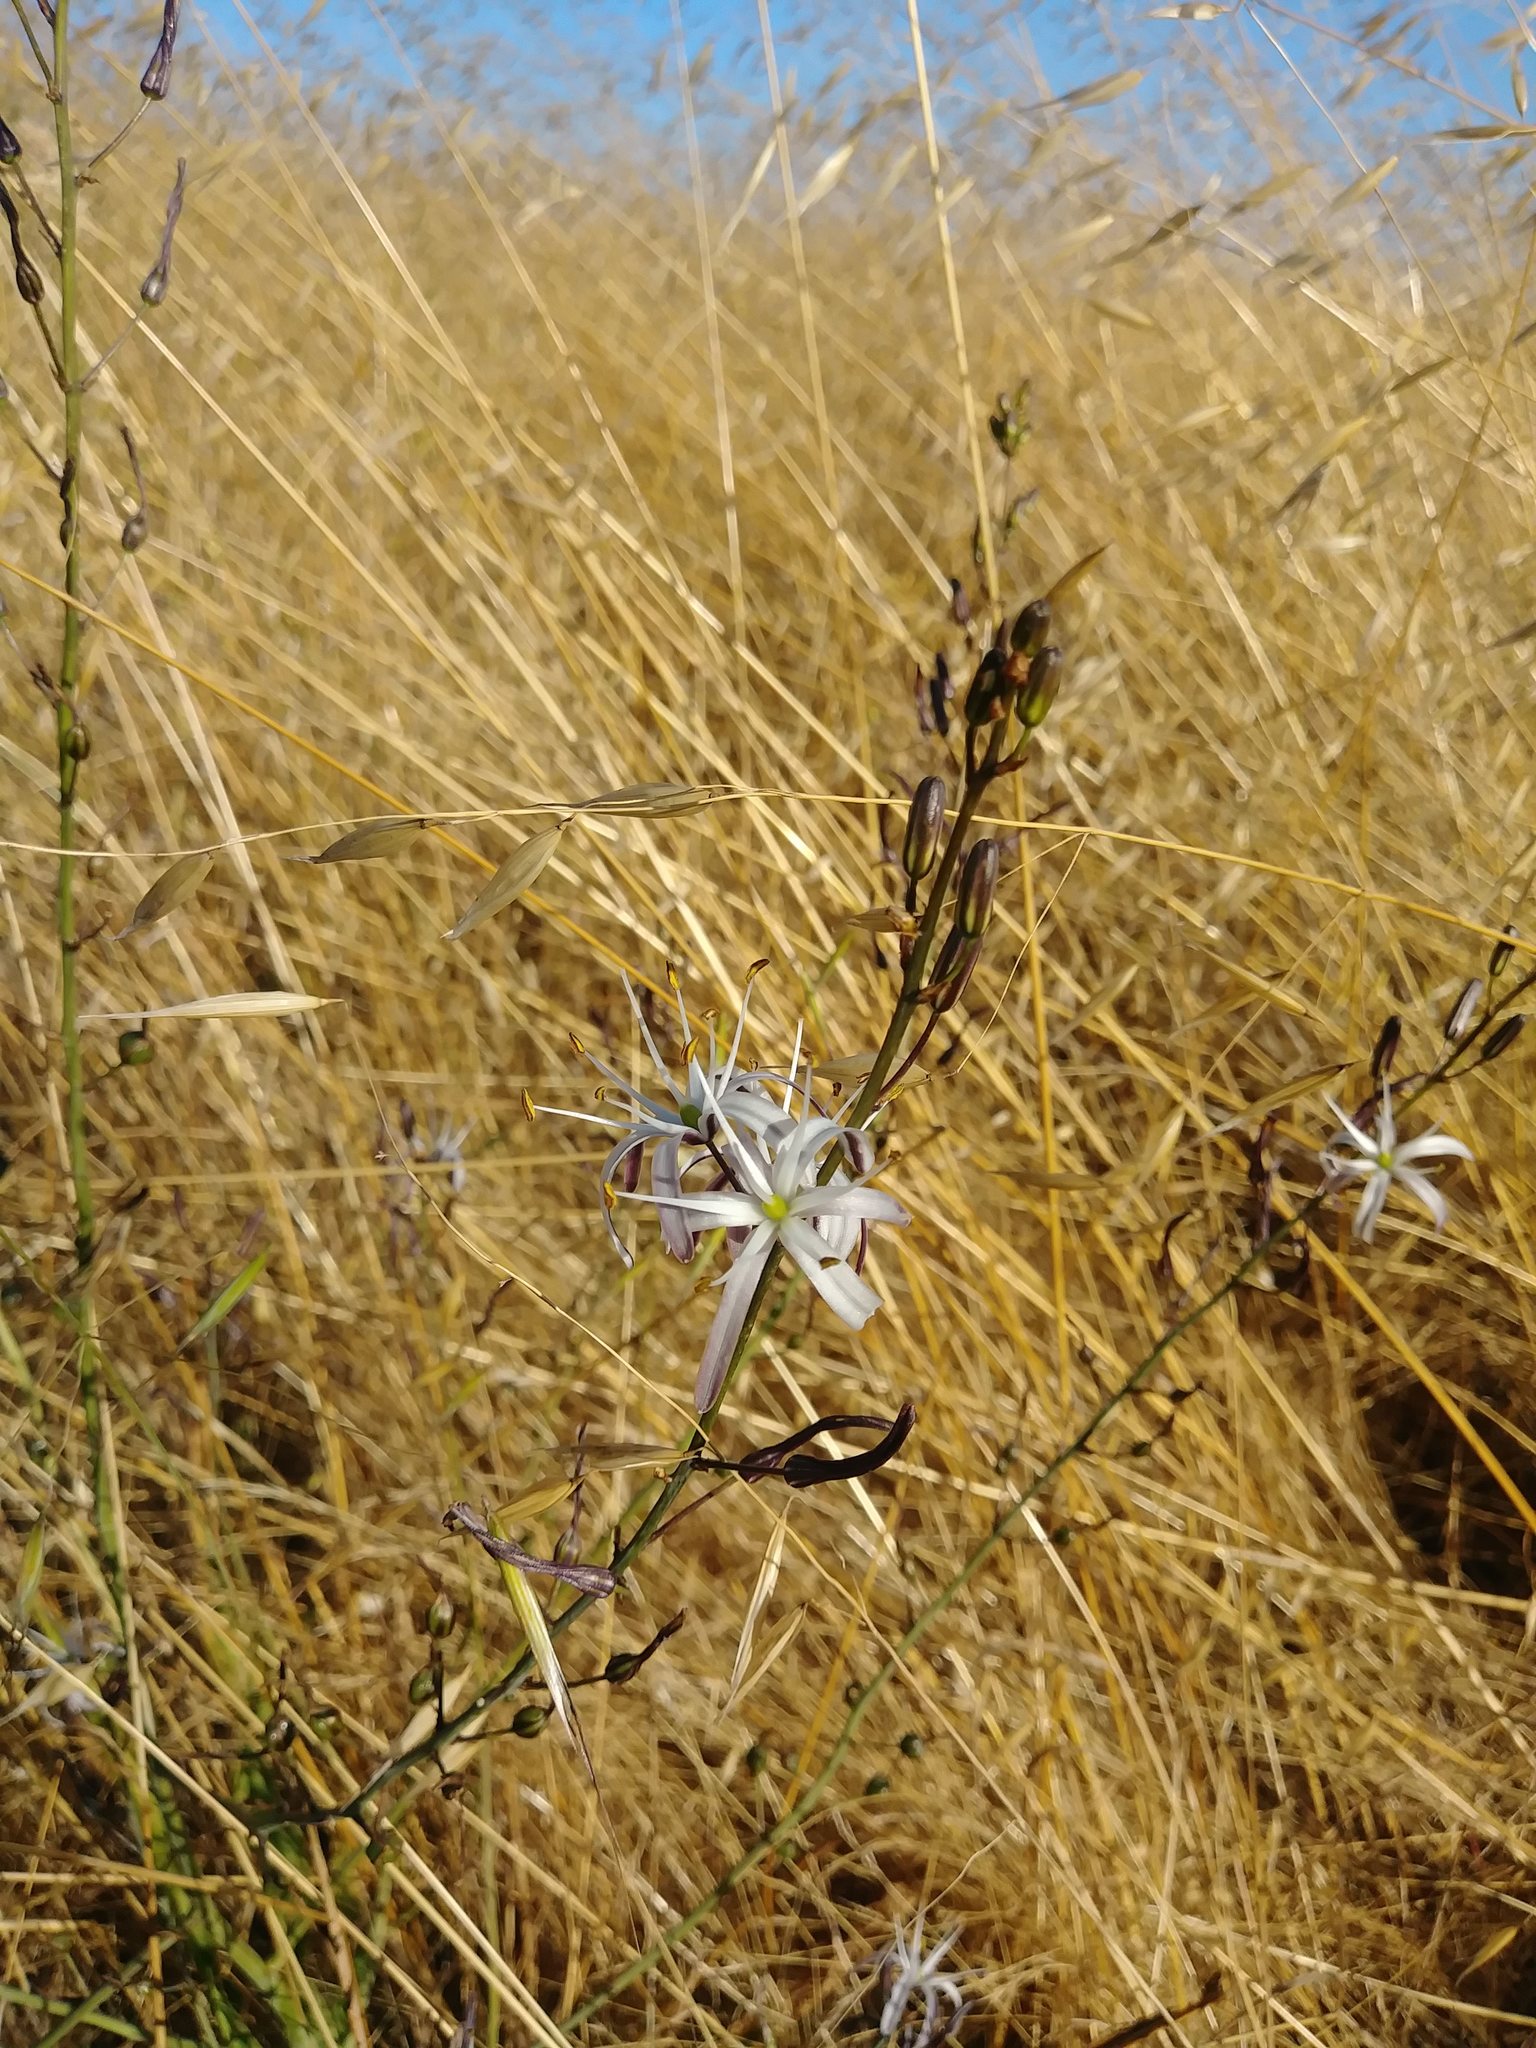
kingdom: Plantae
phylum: Tracheophyta
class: Liliopsida
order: Asparagales
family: Asparagaceae
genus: Chlorogalum
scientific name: Chlorogalum pomeridianum
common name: Amole
